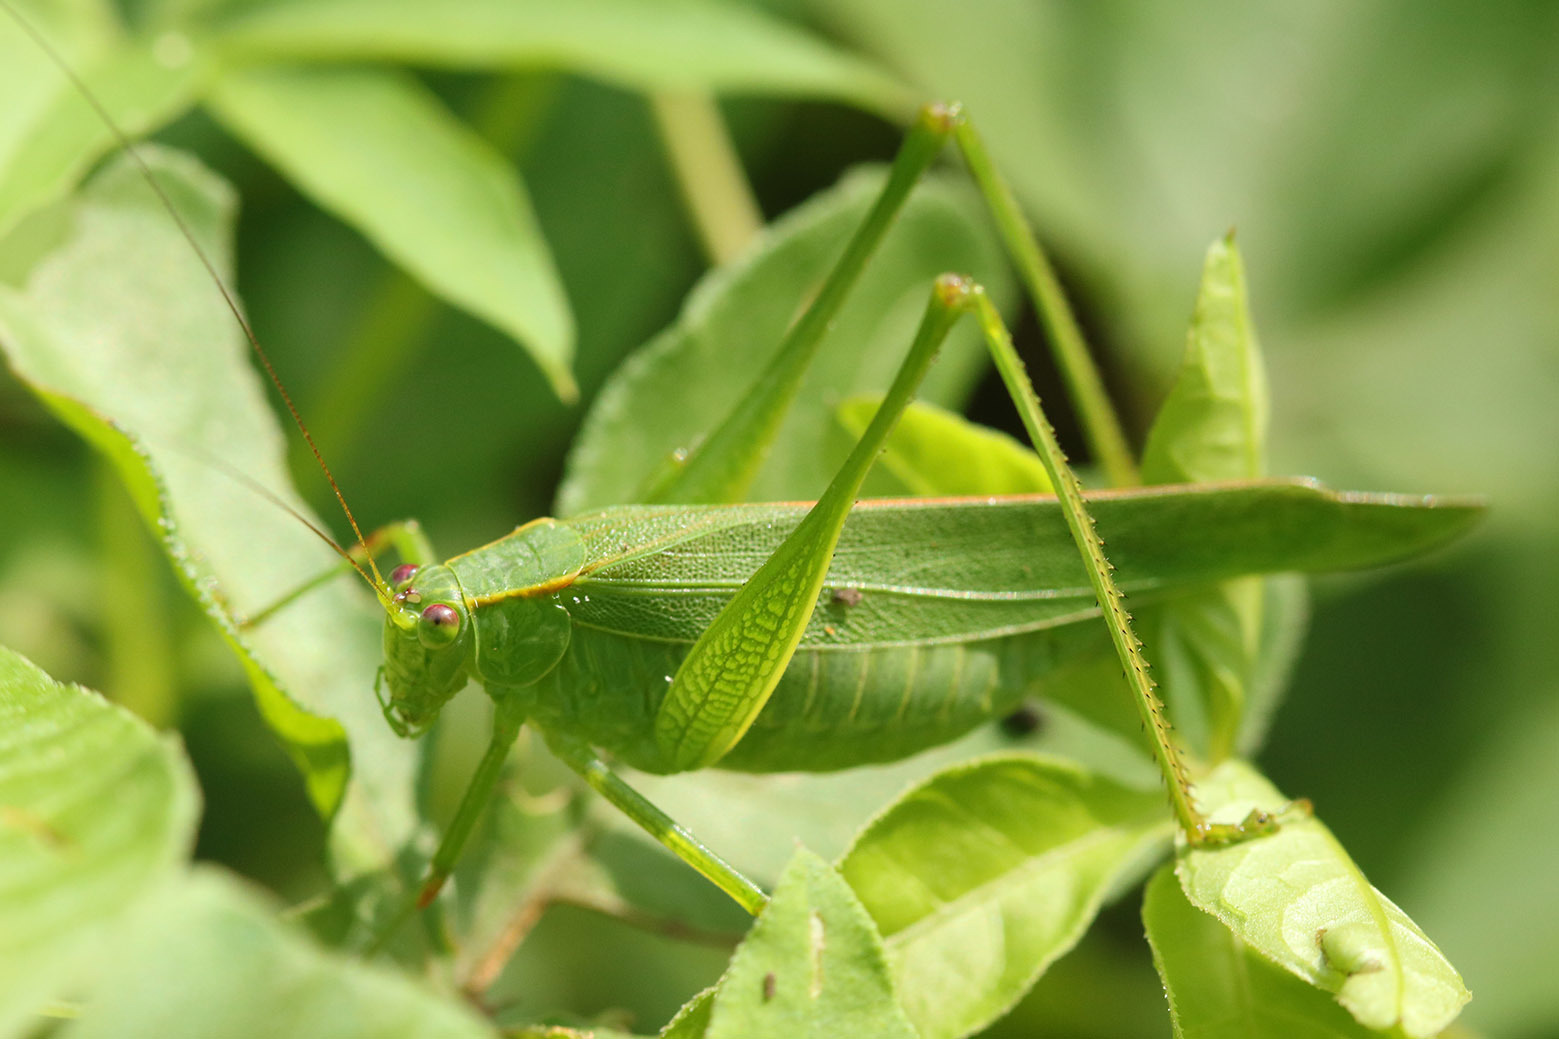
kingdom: Animalia
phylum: Arthropoda
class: Insecta
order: Orthoptera
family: Tettigoniidae
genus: Ligocatinus
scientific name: Ligocatinus spinatus
